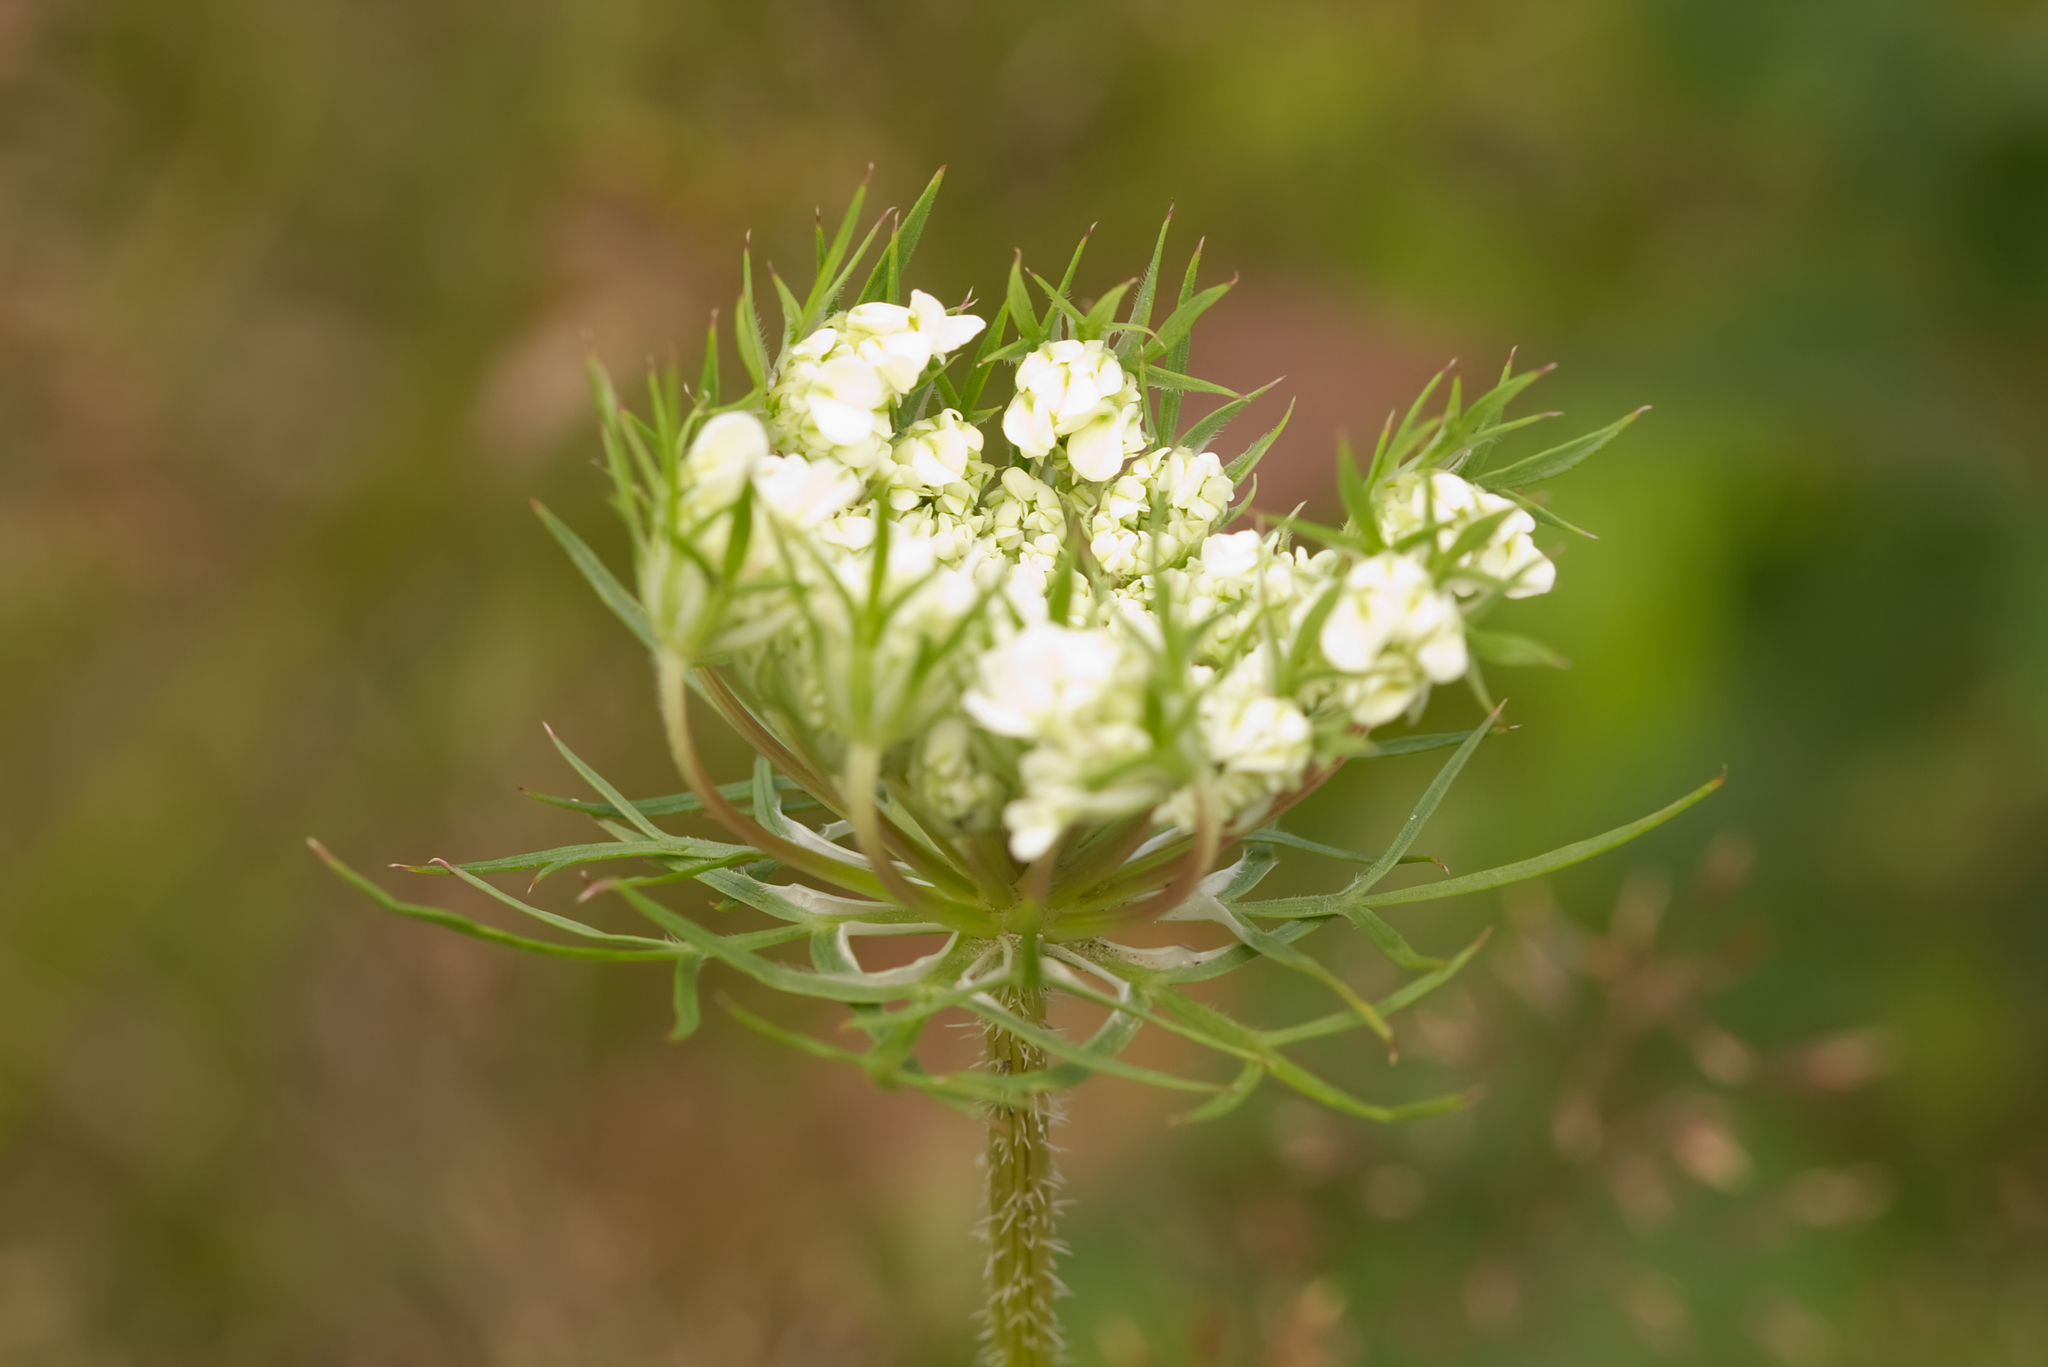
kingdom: Plantae
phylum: Tracheophyta
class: Magnoliopsida
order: Apiales
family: Apiaceae
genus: Daucus
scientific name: Daucus carota
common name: Wild carrot
